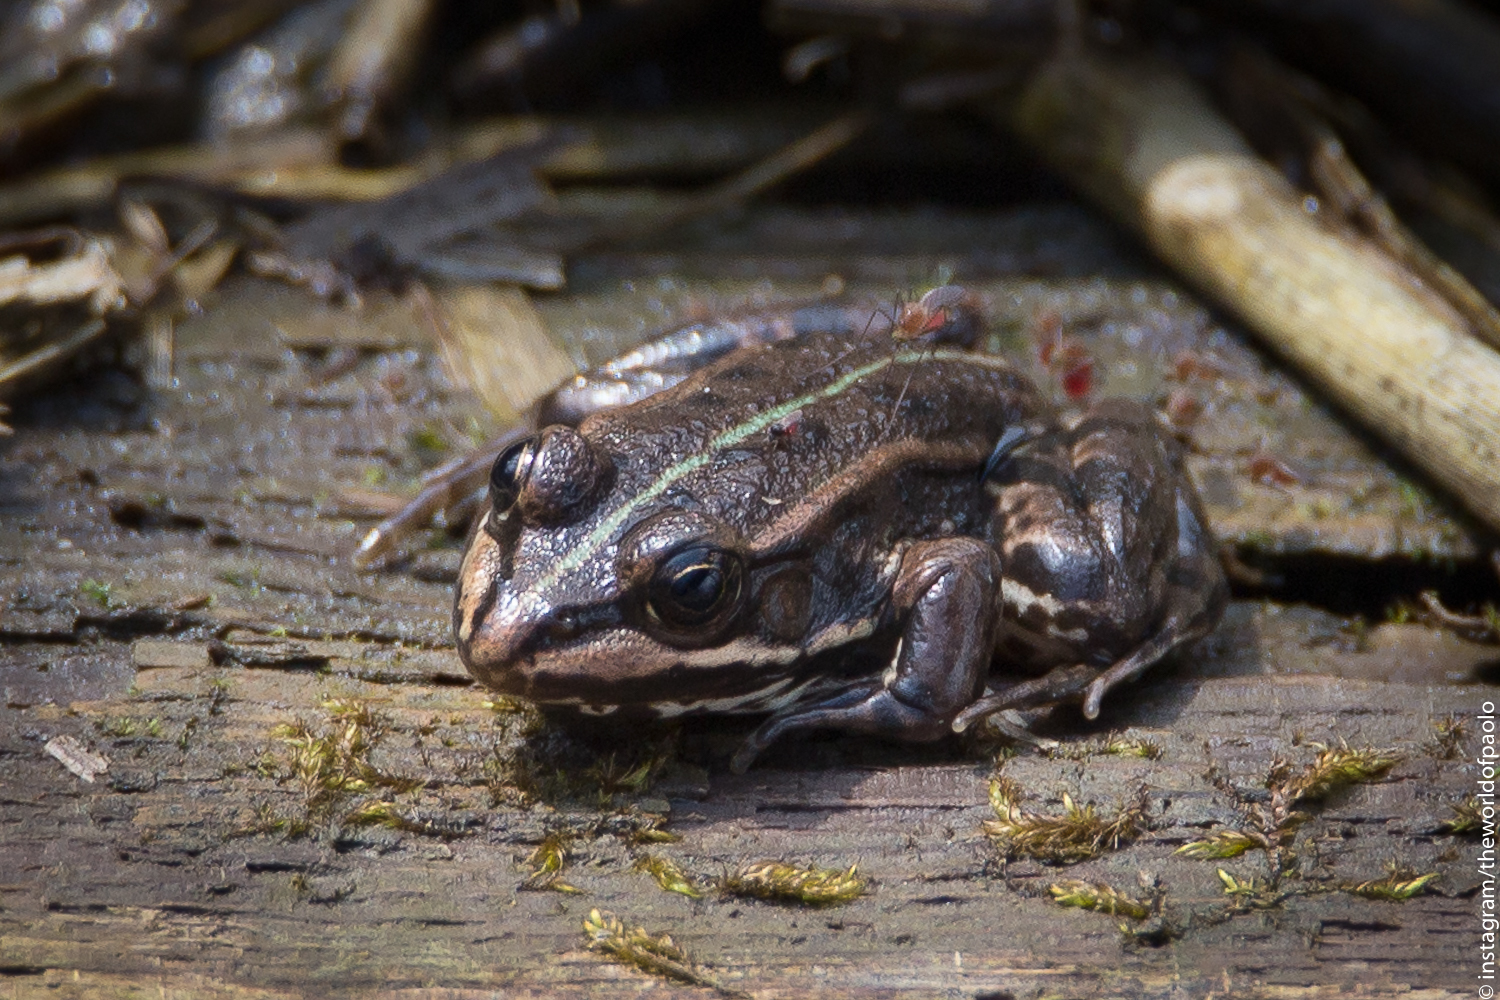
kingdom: Animalia
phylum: Chordata
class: Amphibia
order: Anura
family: Ranidae
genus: Pelophylax
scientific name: Pelophylax
